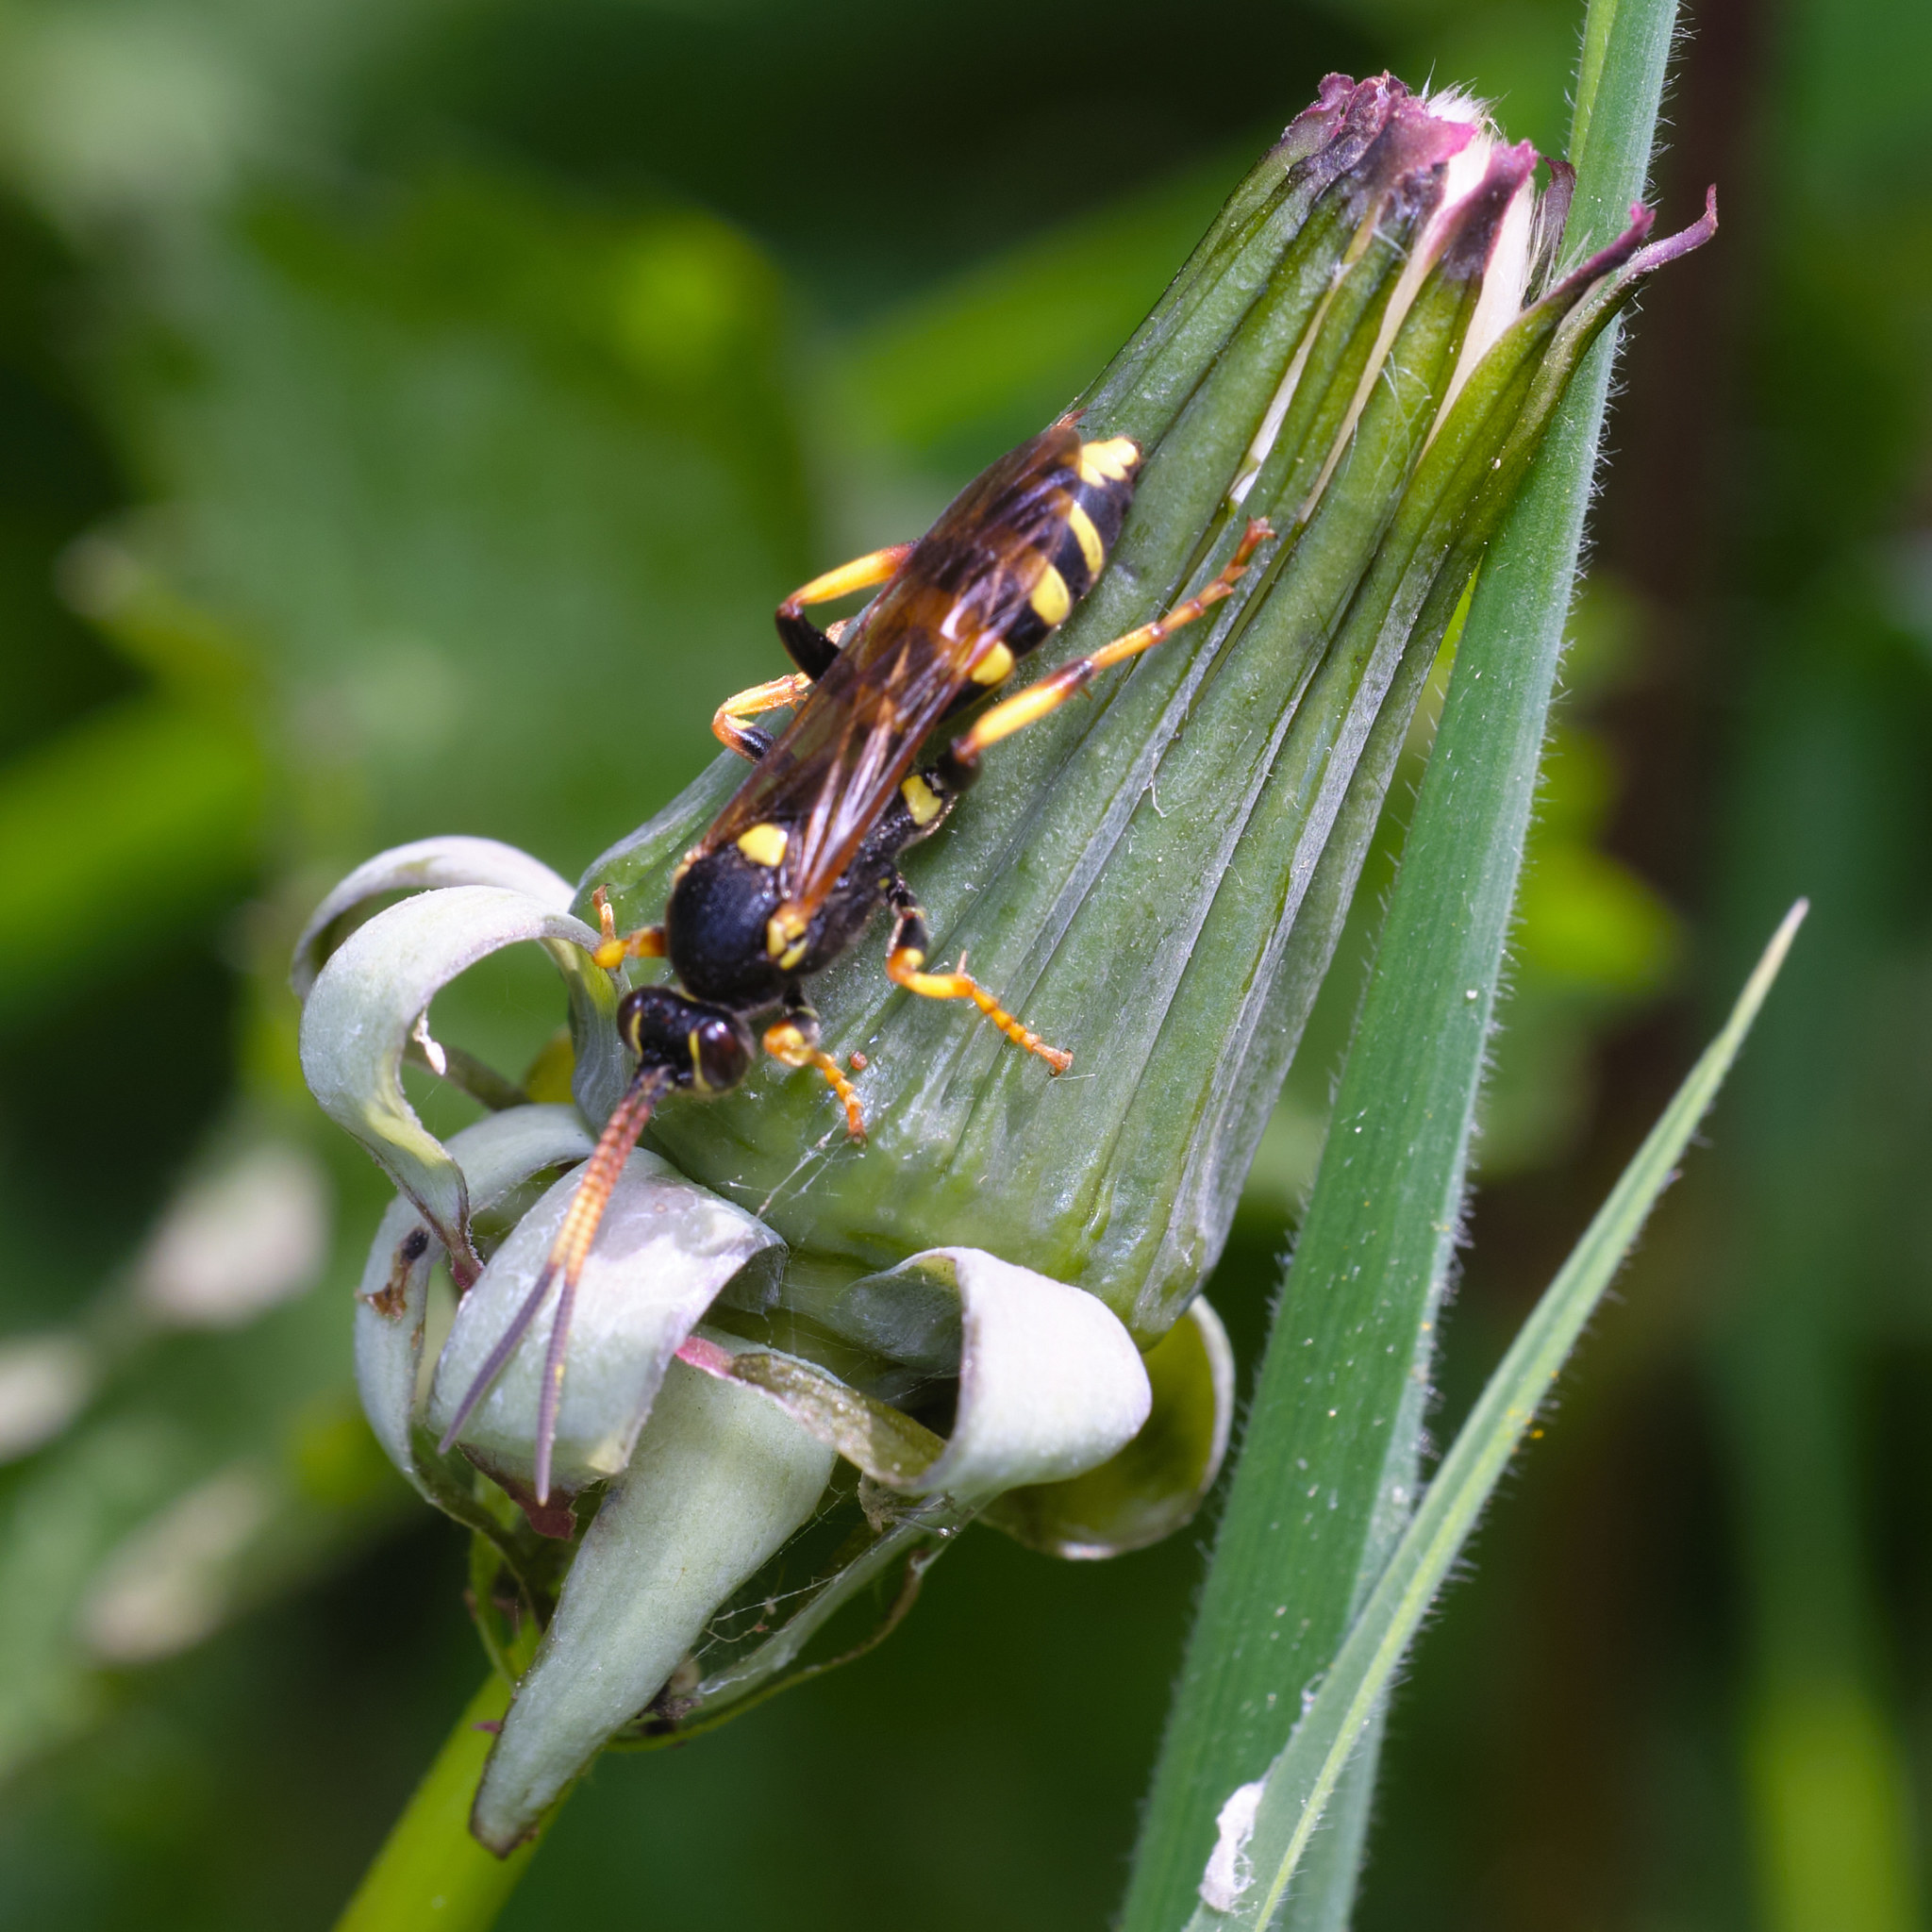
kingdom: Animalia
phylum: Arthropoda
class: Insecta
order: Hymenoptera
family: Ichneumonidae
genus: Ichneumon
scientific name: Ichneumon xanthorius
